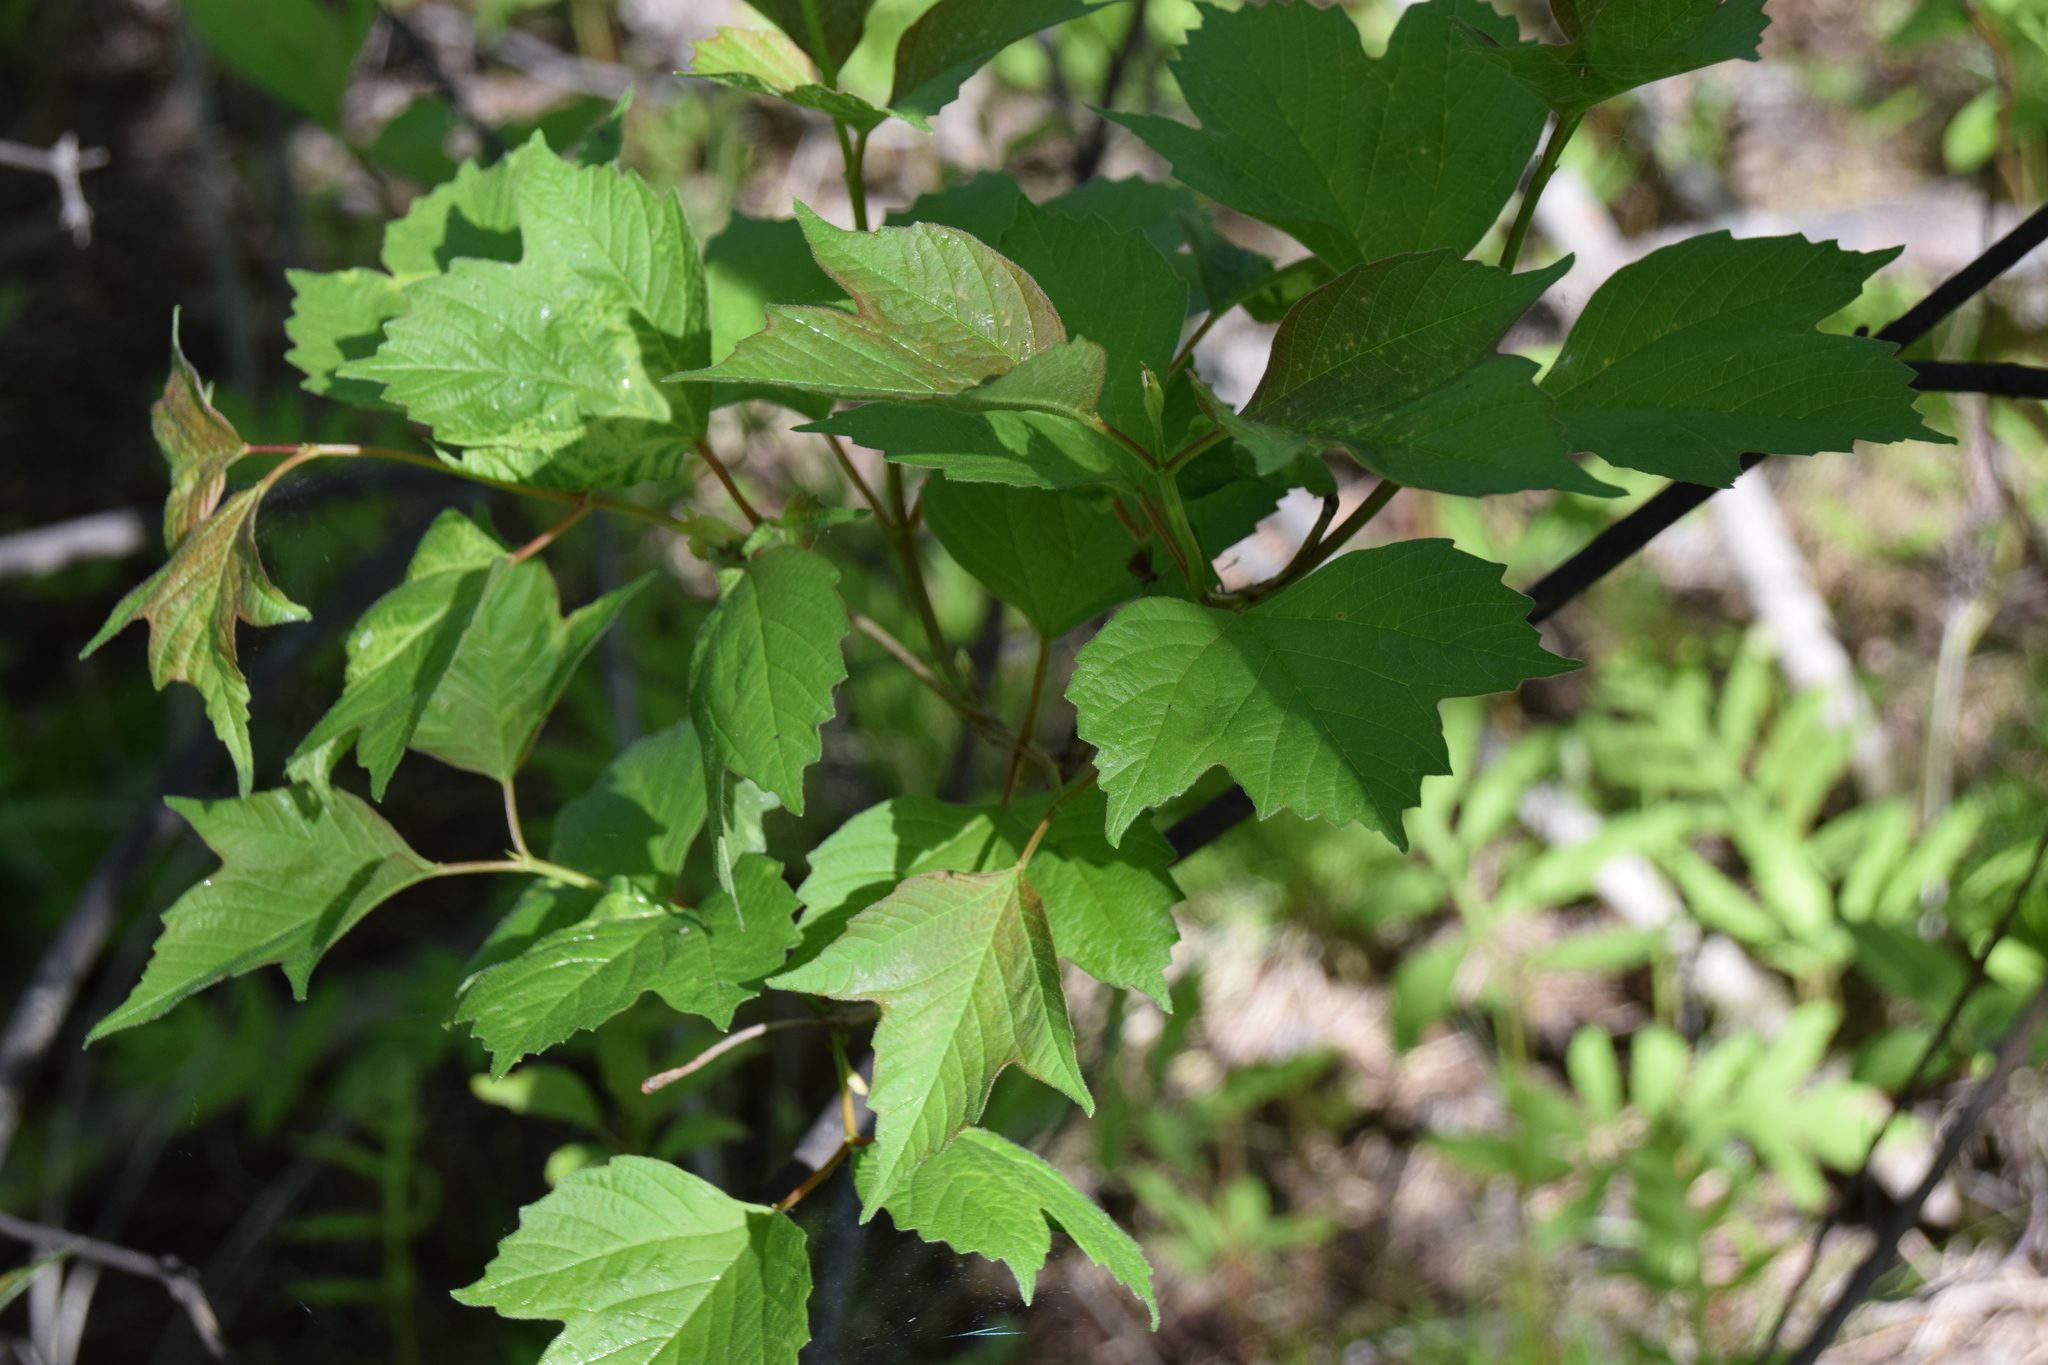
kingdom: Plantae
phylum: Tracheophyta
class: Magnoliopsida
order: Dipsacales
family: Viburnaceae
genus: Viburnum
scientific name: Viburnum trilobum
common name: American cranberrybush
